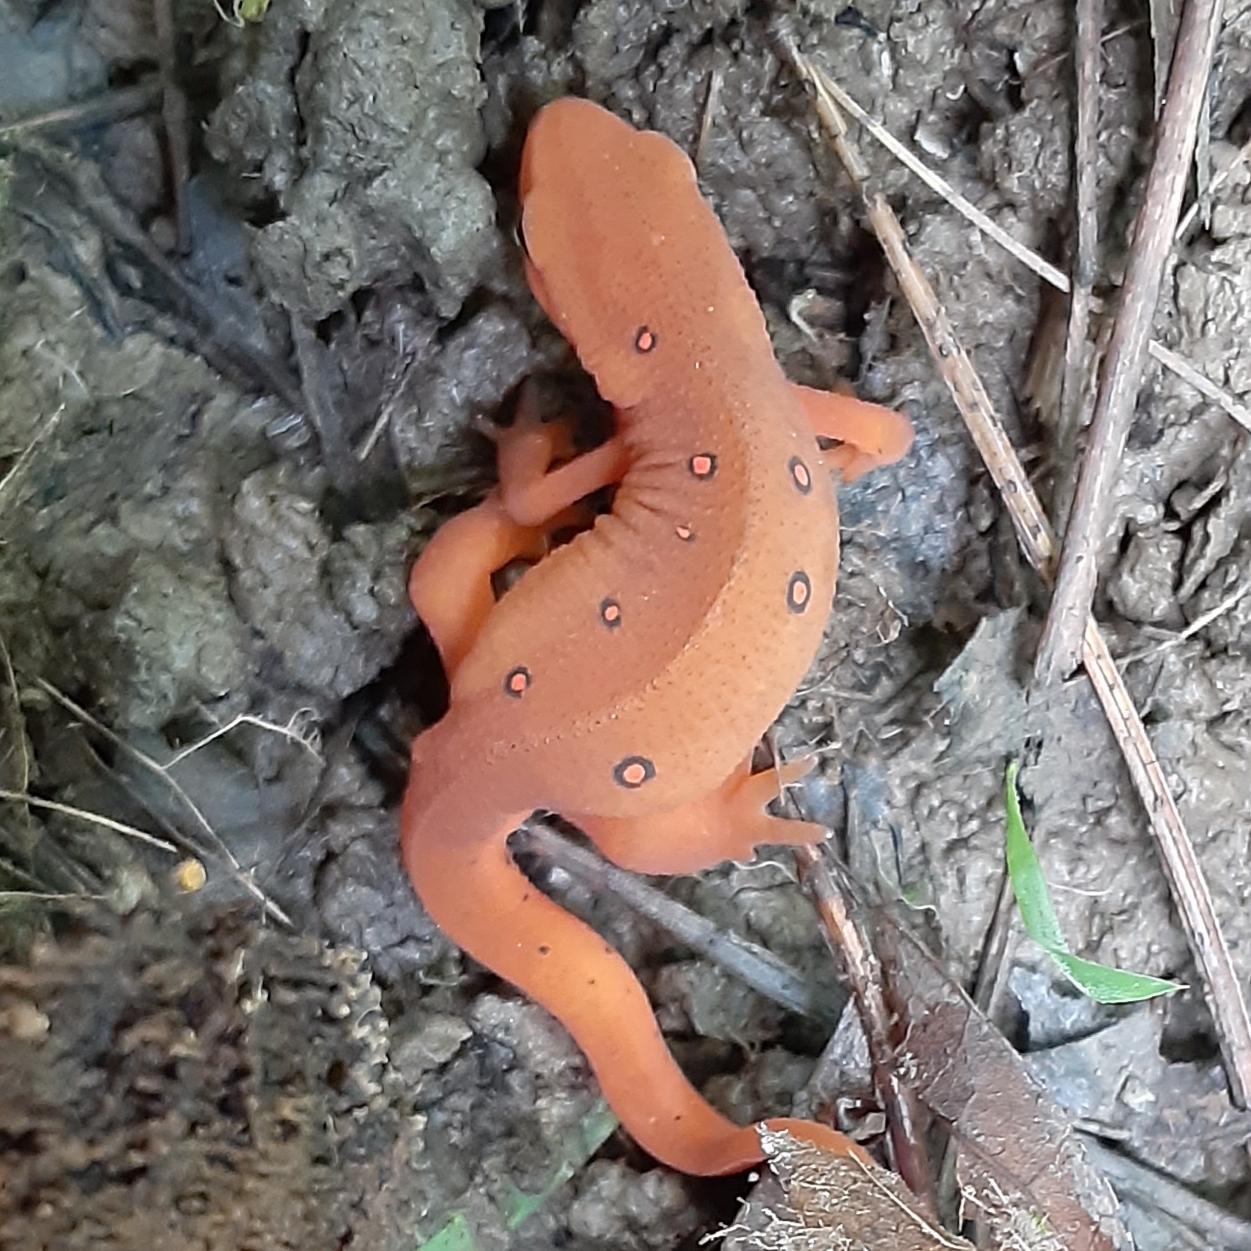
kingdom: Animalia
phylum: Chordata
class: Amphibia
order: Caudata
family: Salamandridae
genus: Notophthalmus
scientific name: Notophthalmus viridescens
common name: Eastern newt
